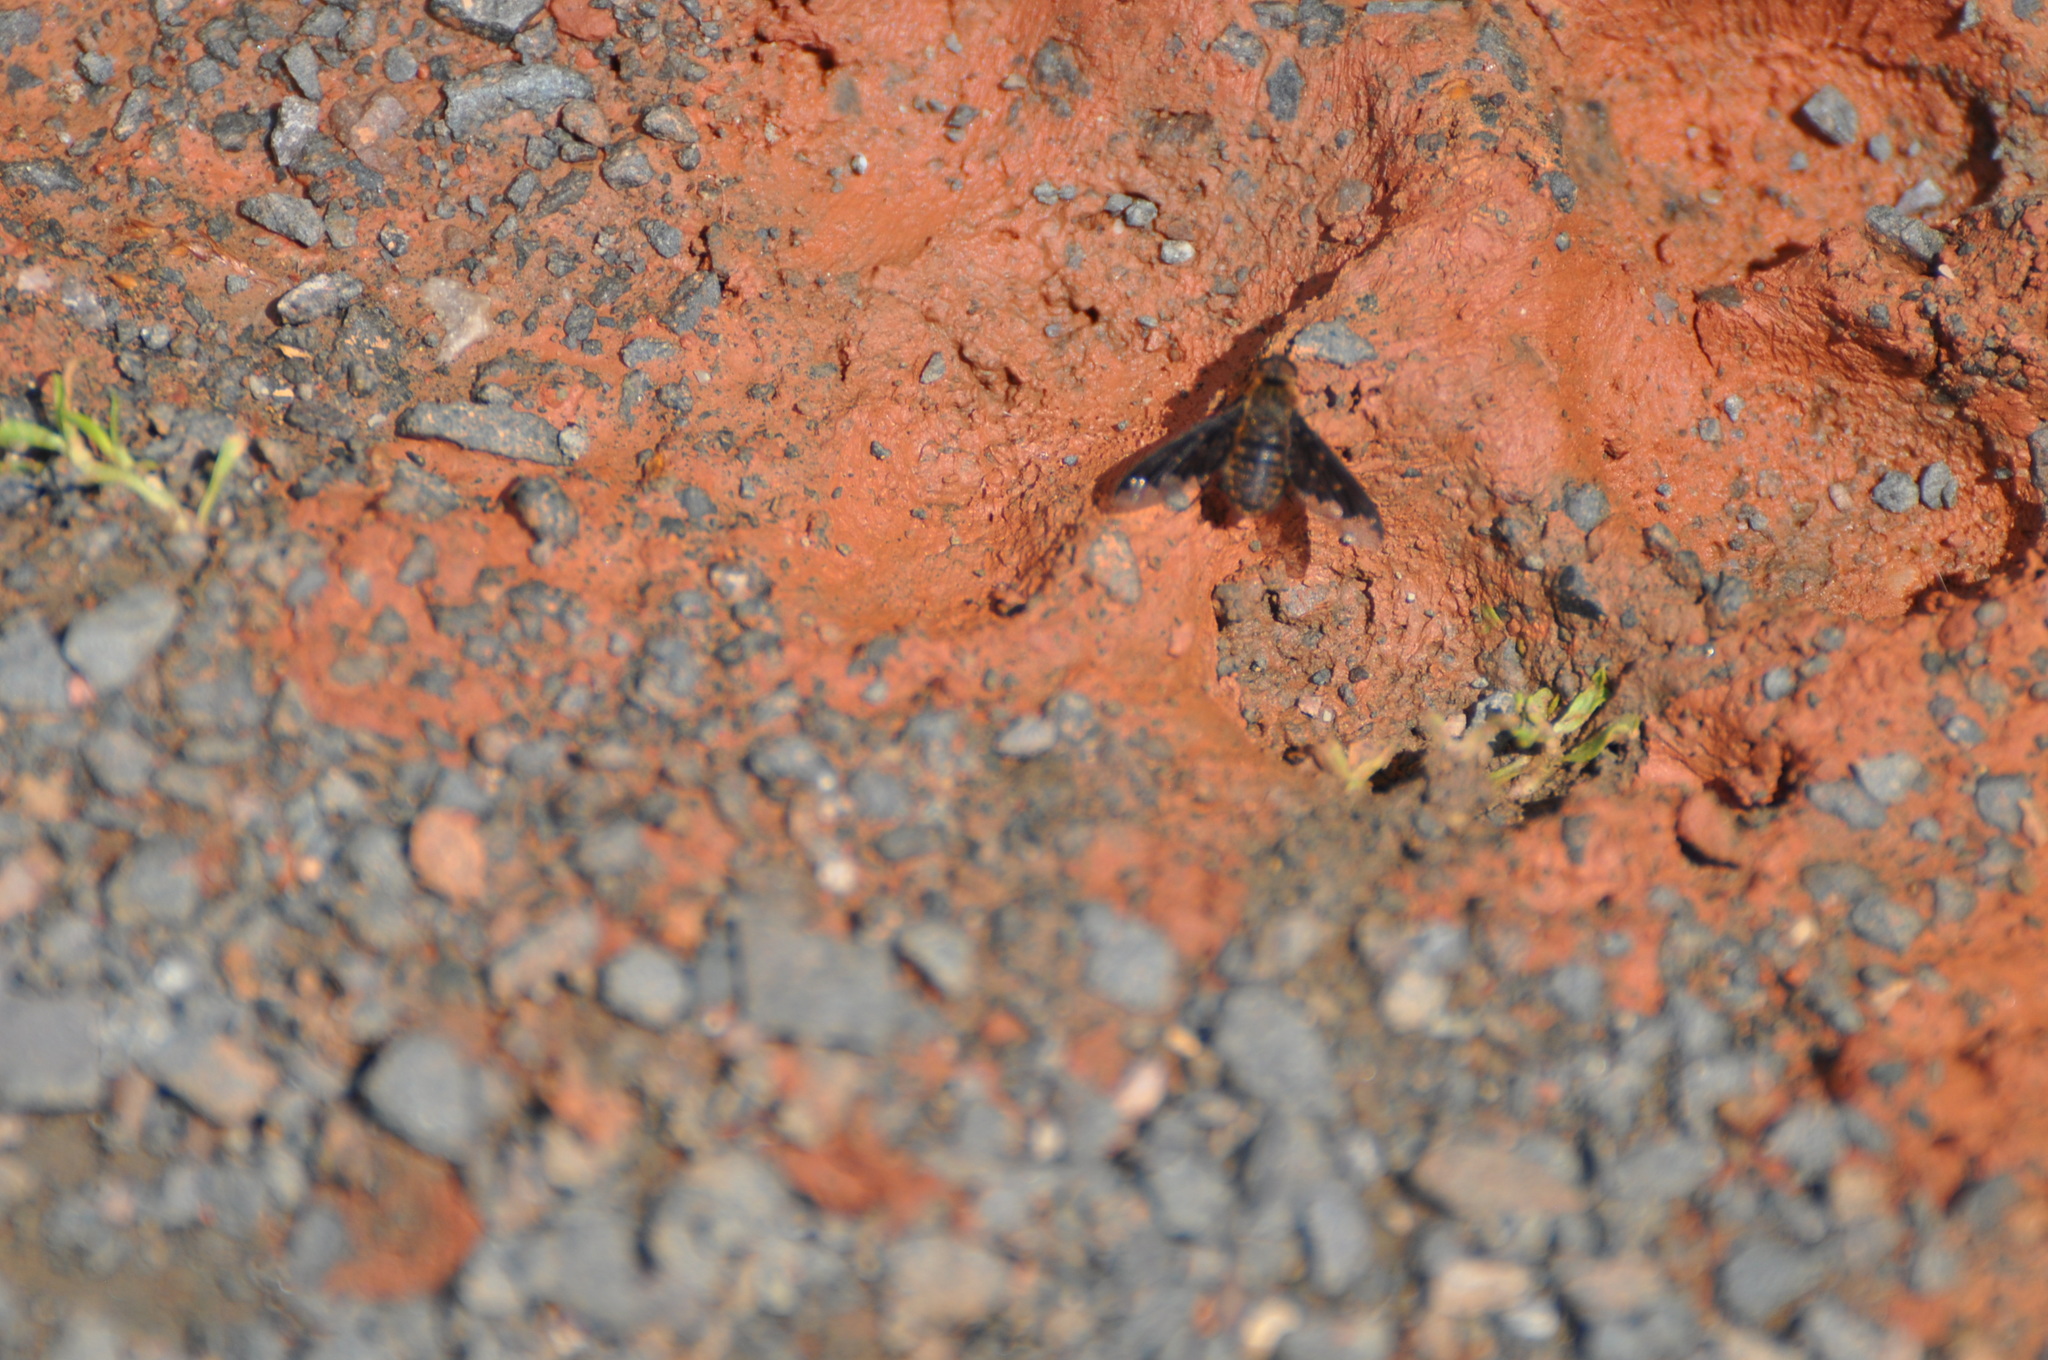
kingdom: Animalia
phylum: Arthropoda
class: Insecta
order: Diptera
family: Bombyliidae
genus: Hemipenthes
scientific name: Hemipenthes sinuosus
